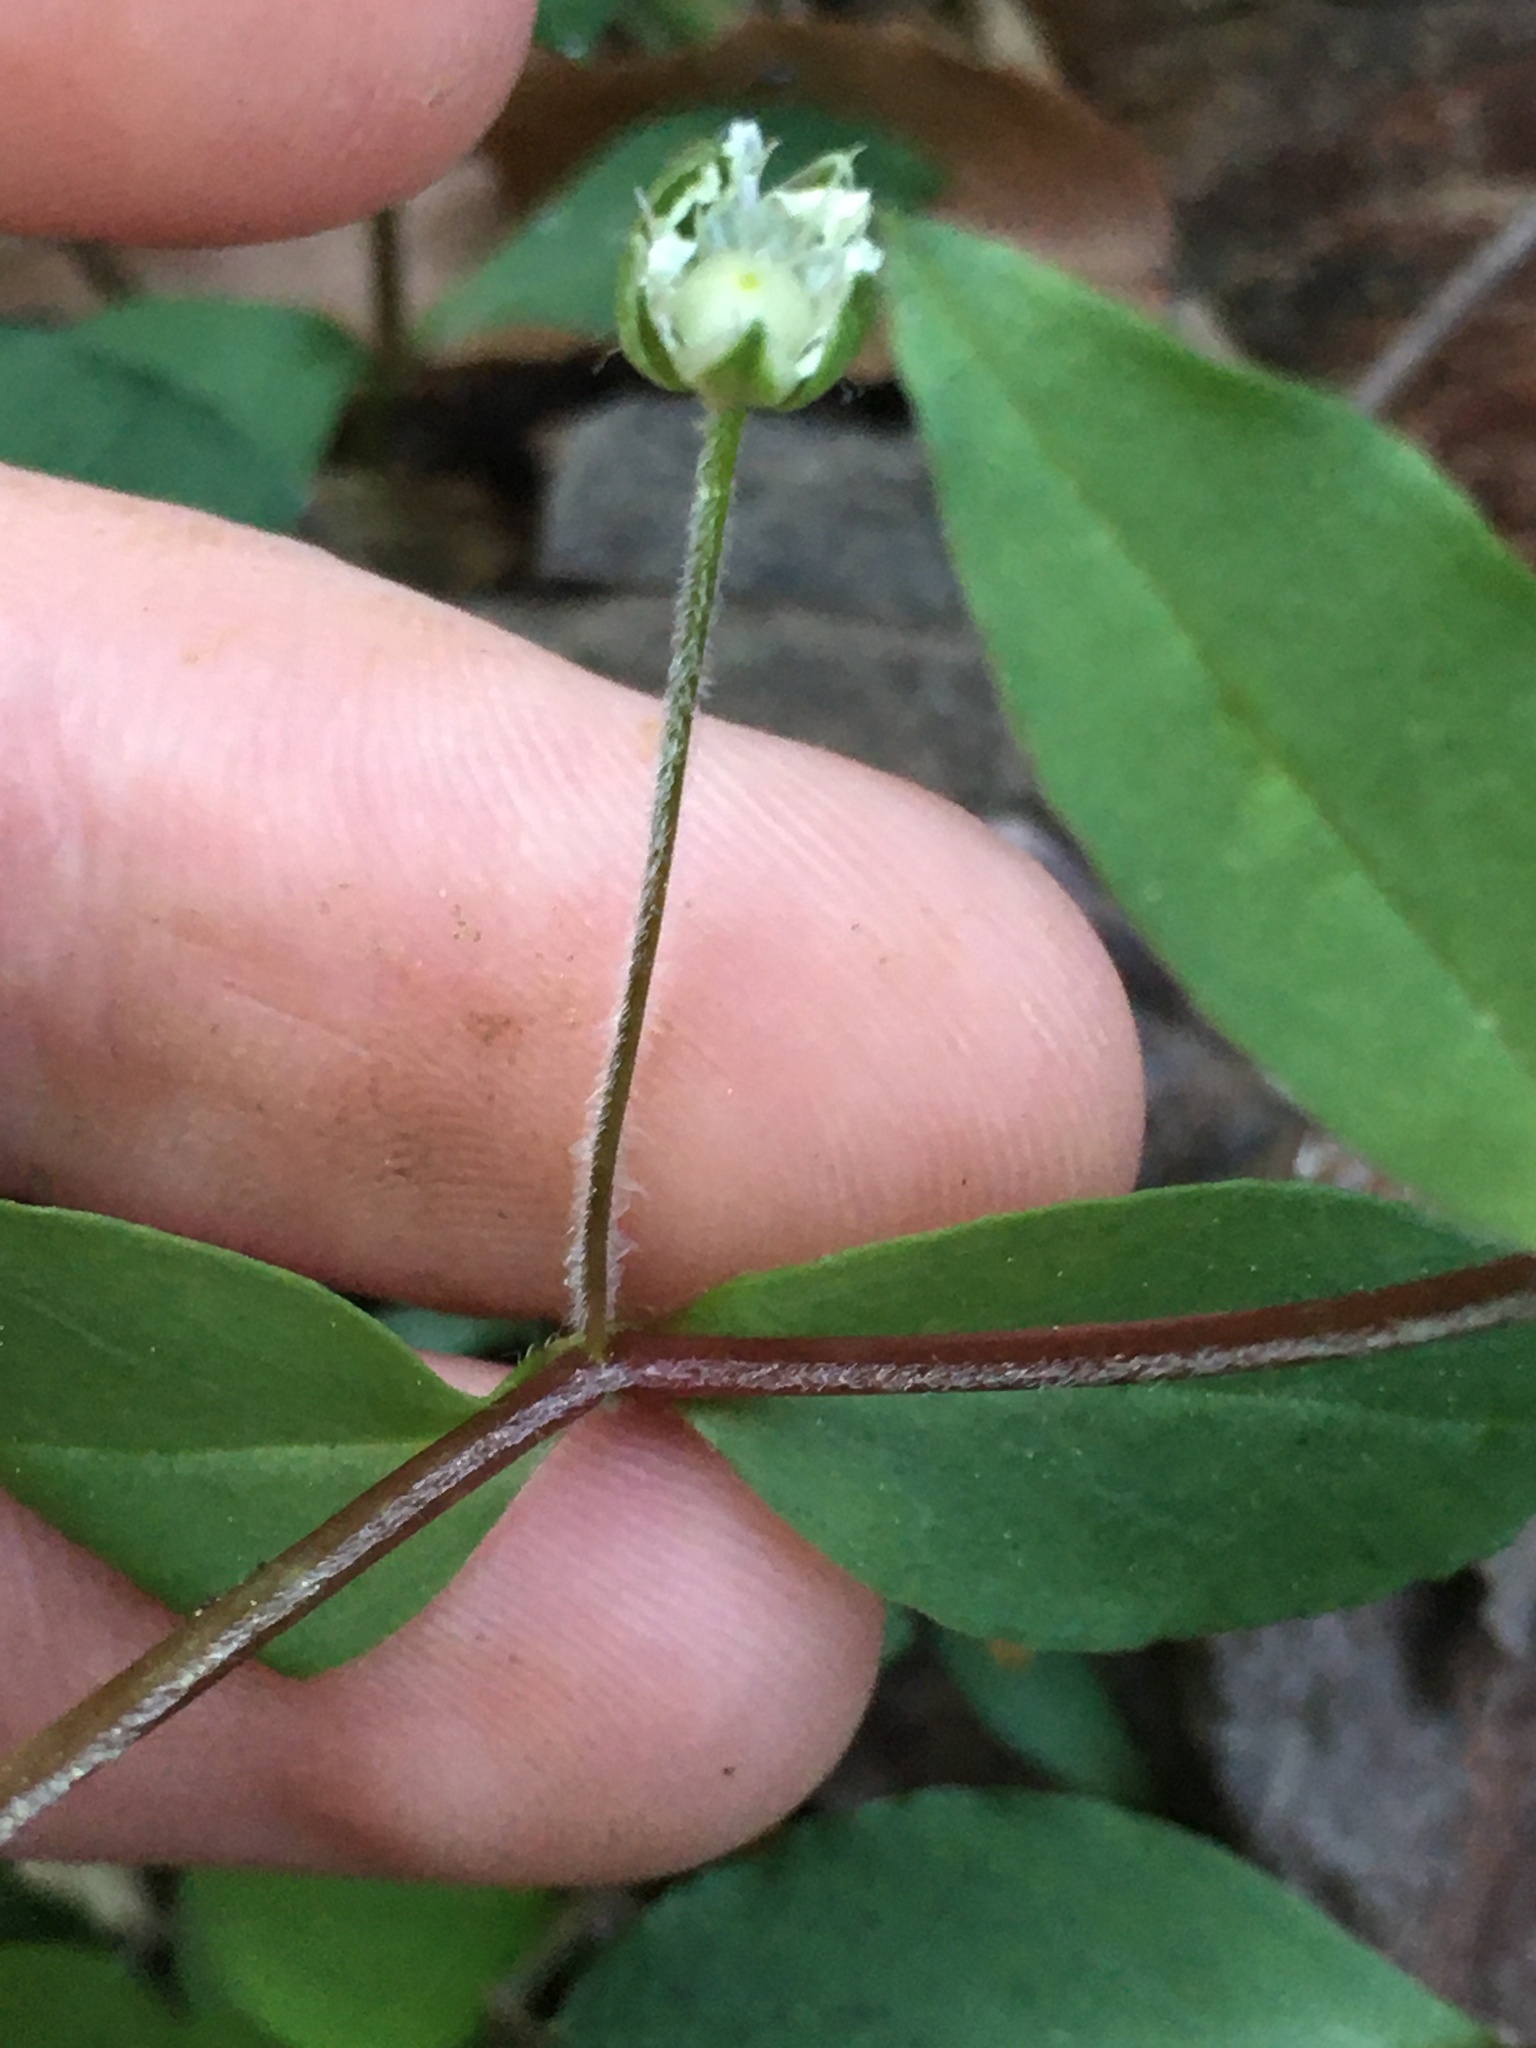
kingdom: Plantae
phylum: Tracheophyta
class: Magnoliopsida
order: Caryophyllales
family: Caryophyllaceae
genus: Stellaria
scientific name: Stellaria pubera
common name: Star chickweed
